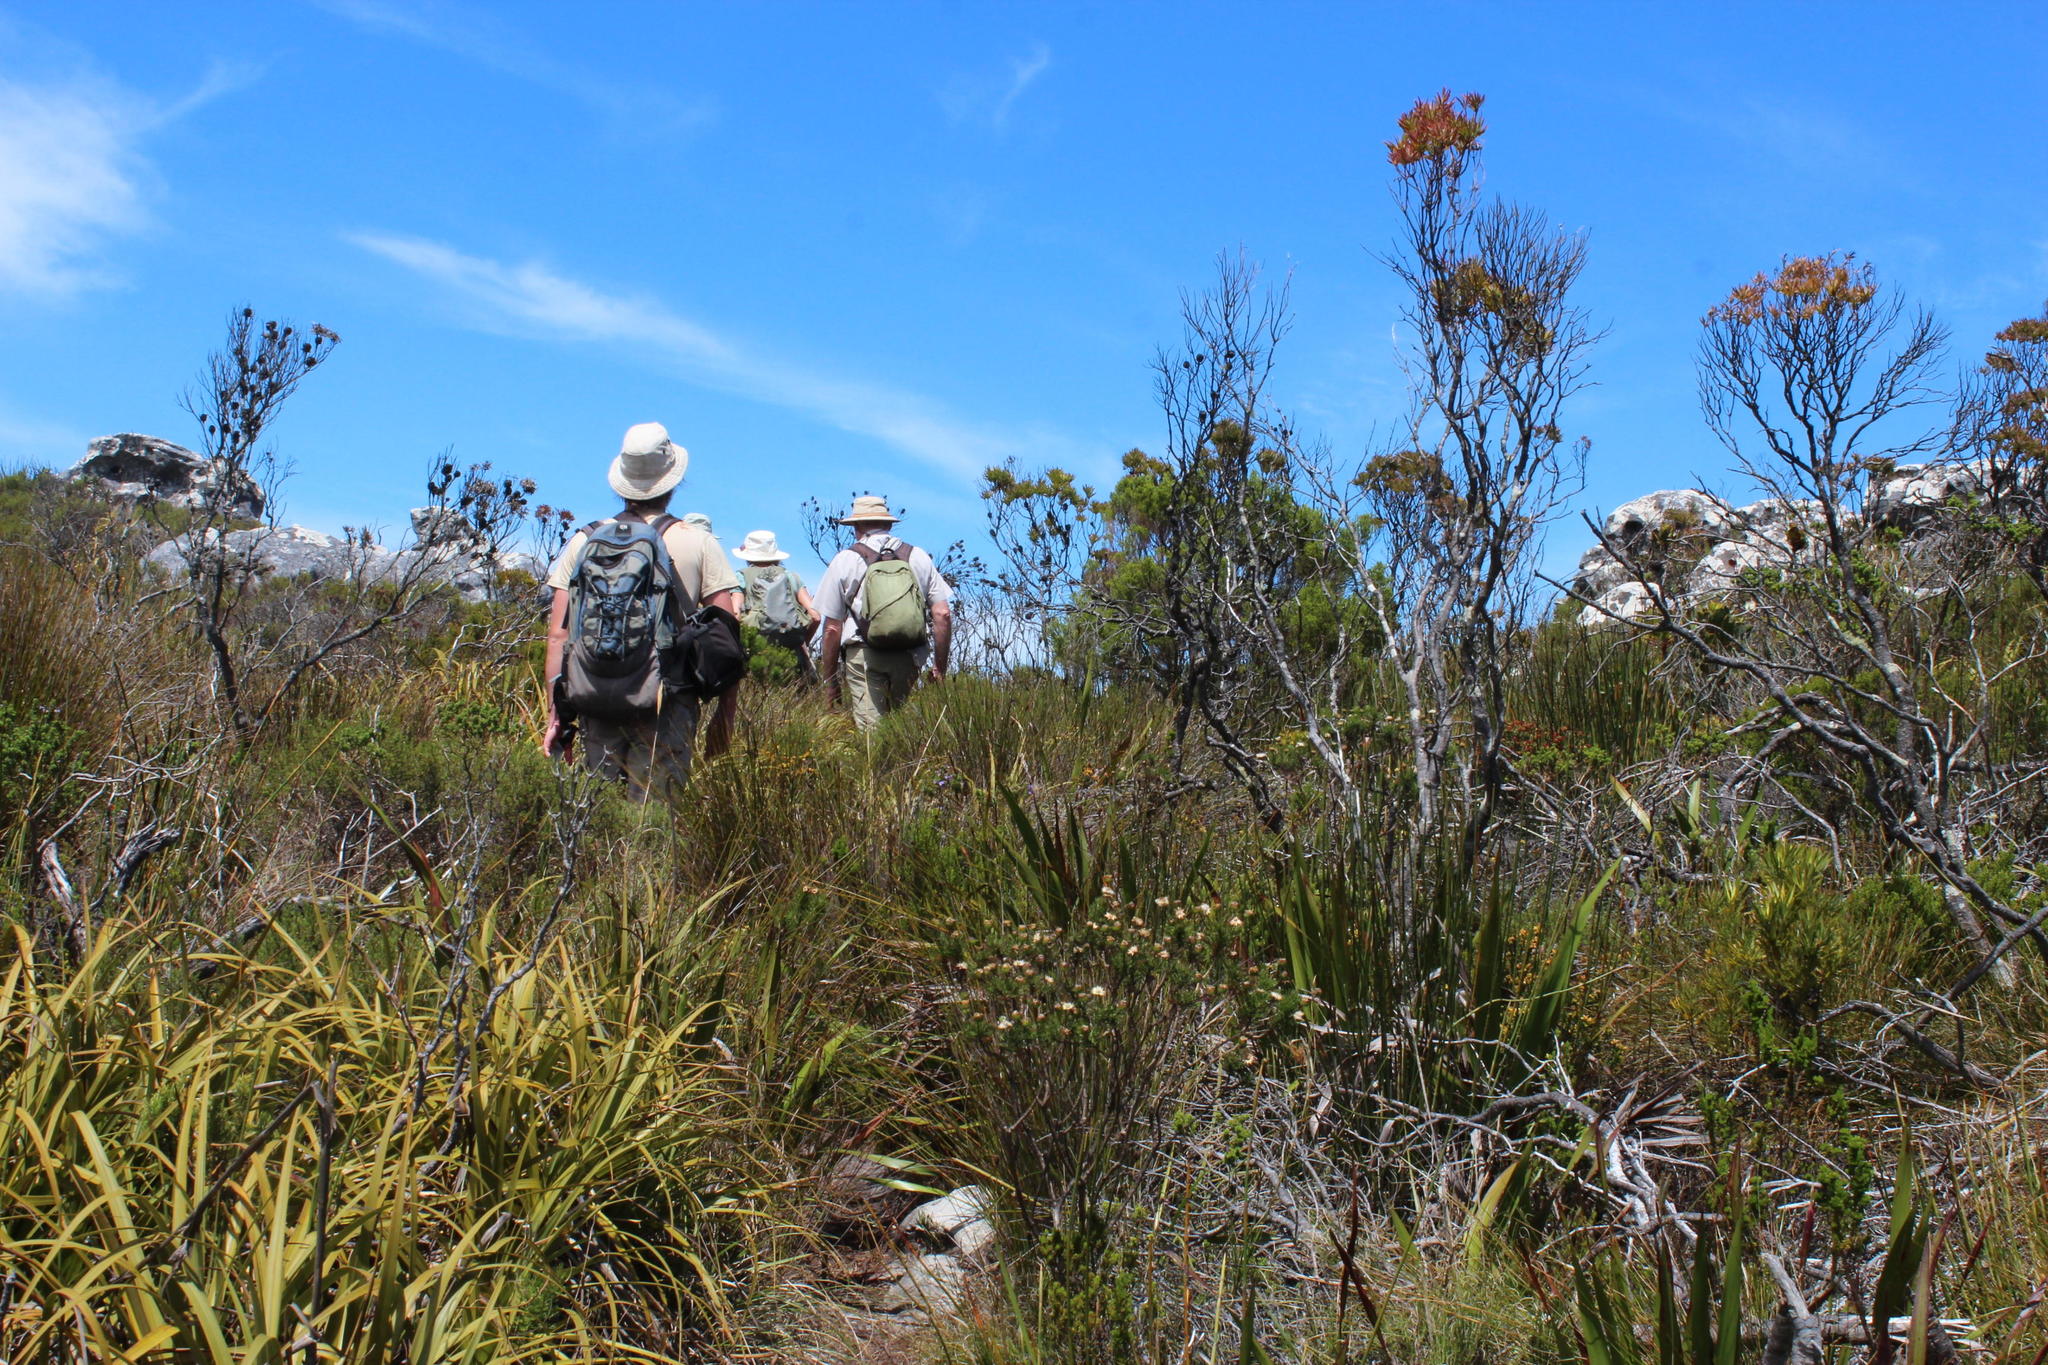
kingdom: Plantae
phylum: Tracheophyta
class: Magnoliopsida
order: Proteales
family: Proteaceae
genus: Leucadendron
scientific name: Leucadendron xanthoconus
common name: Sickle-leaf conebush
